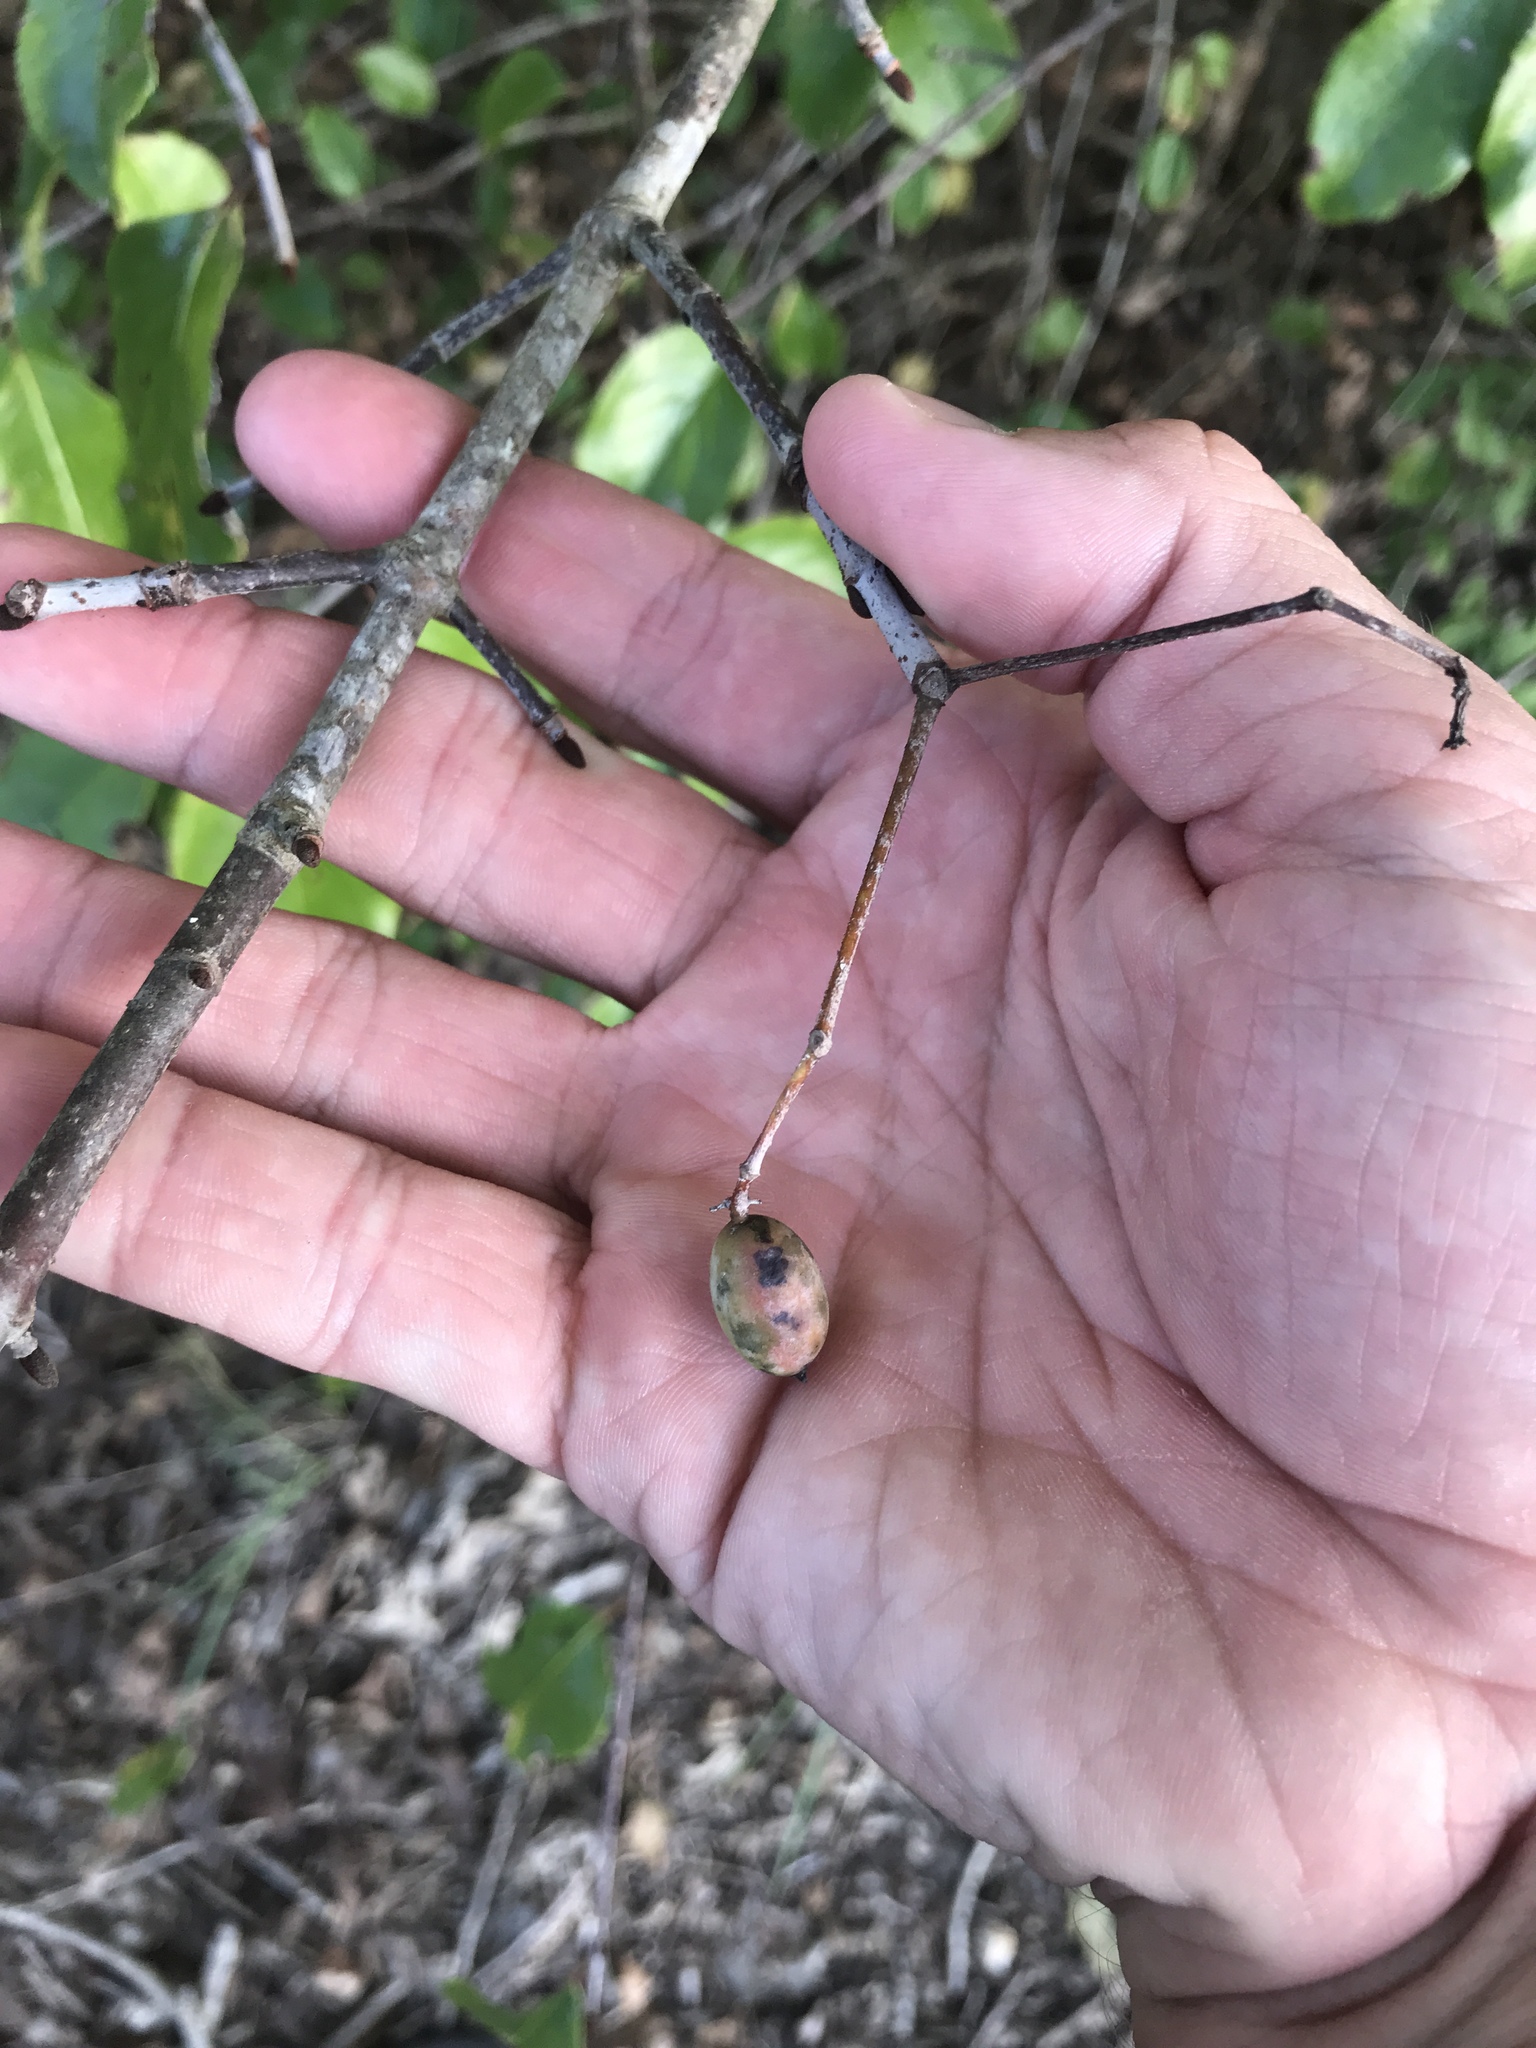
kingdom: Plantae
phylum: Tracheophyta
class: Magnoliopsida
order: Dipsacales
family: Viburnaceae
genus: Viburnum
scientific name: Viburnum rufidulum
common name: Blue haw
